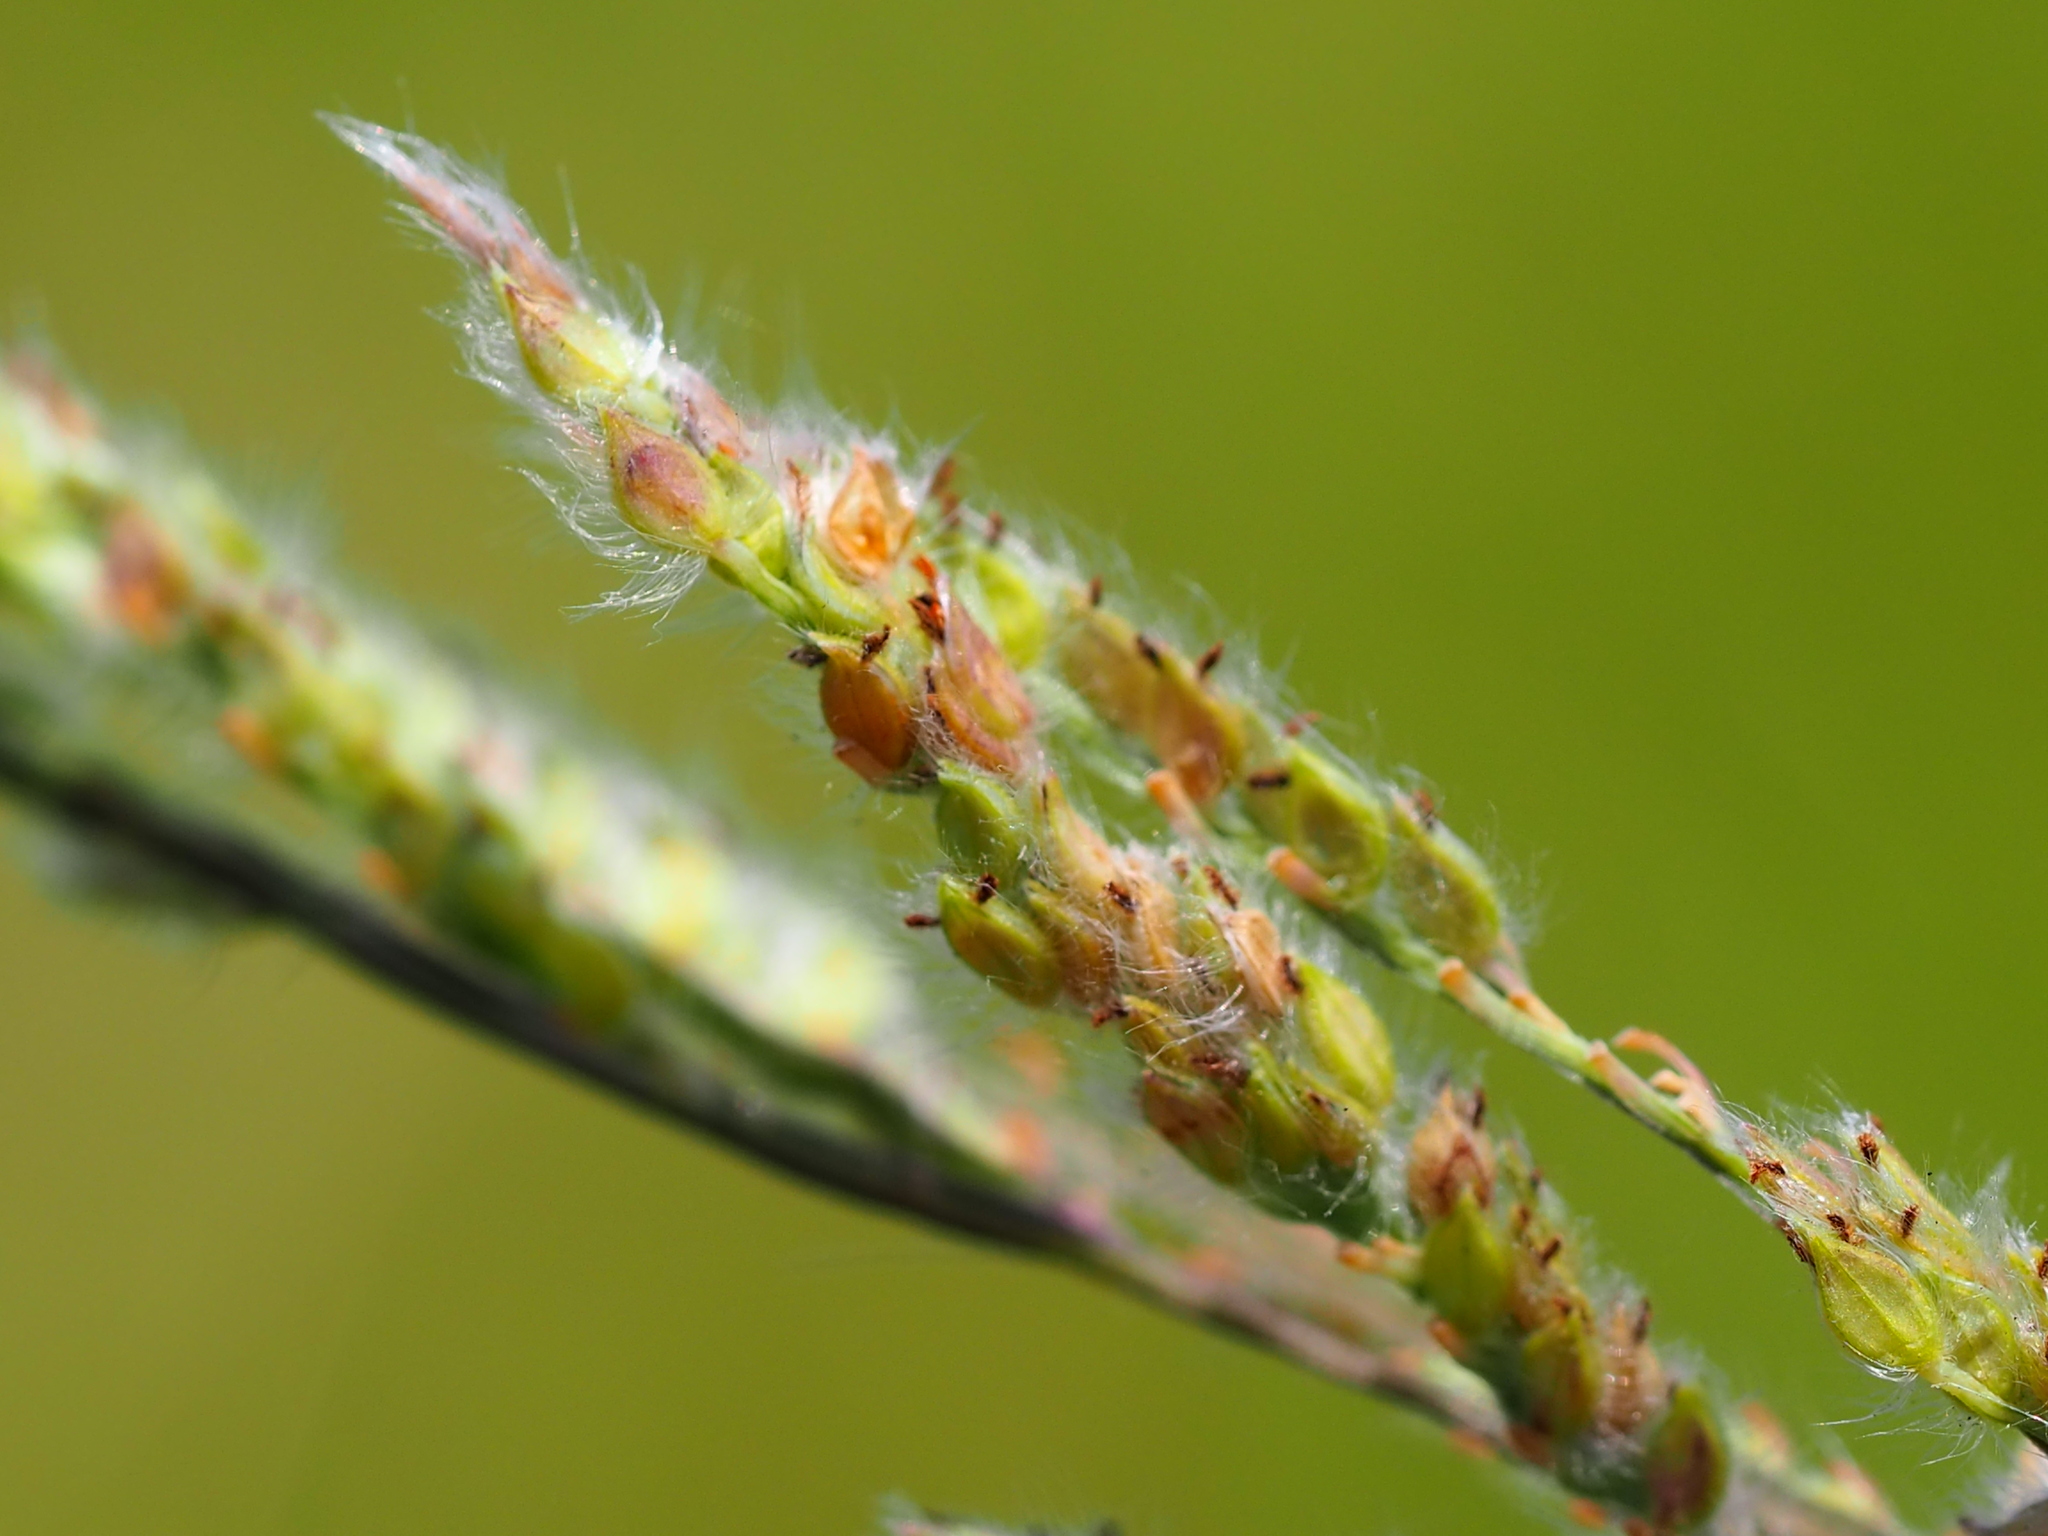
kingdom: Plantae
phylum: Tracheophyta
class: Liliopsida
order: Poales
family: Poaceae
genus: Paspalum
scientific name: Paspalum urvillei
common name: Vasey's grass
